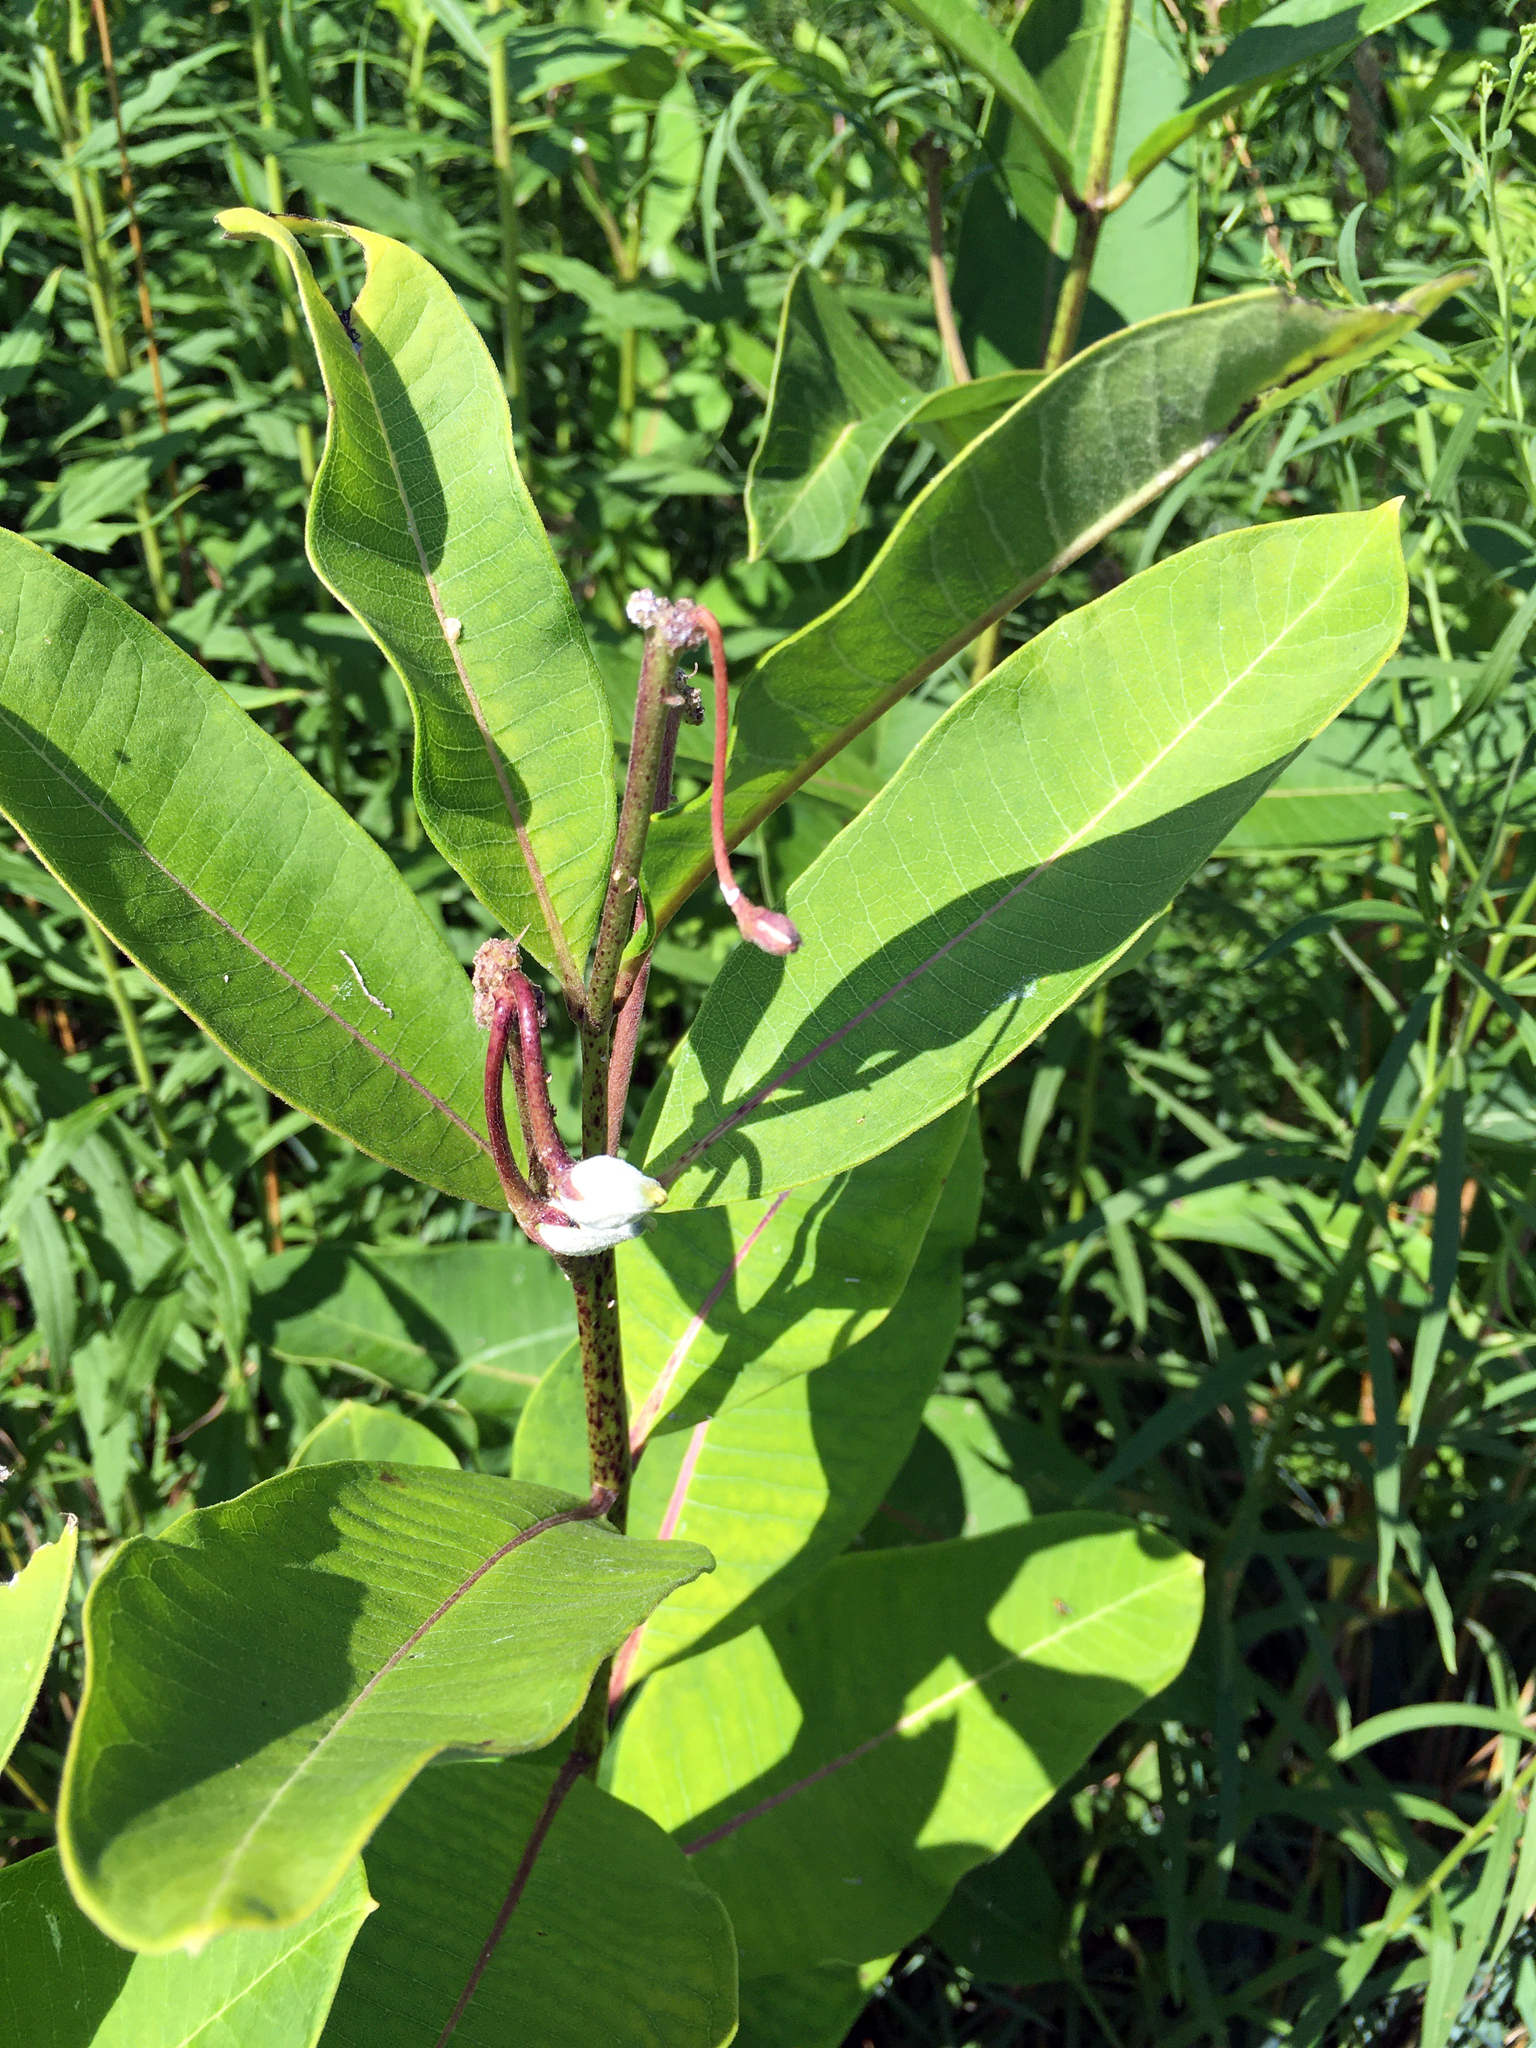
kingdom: Plantae
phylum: Tracheophyta
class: Magnoliopsida
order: Gentianales
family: Apocynaceae
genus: Apocynum
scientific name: Apocynum cannabinum
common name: Hemp dogbane
